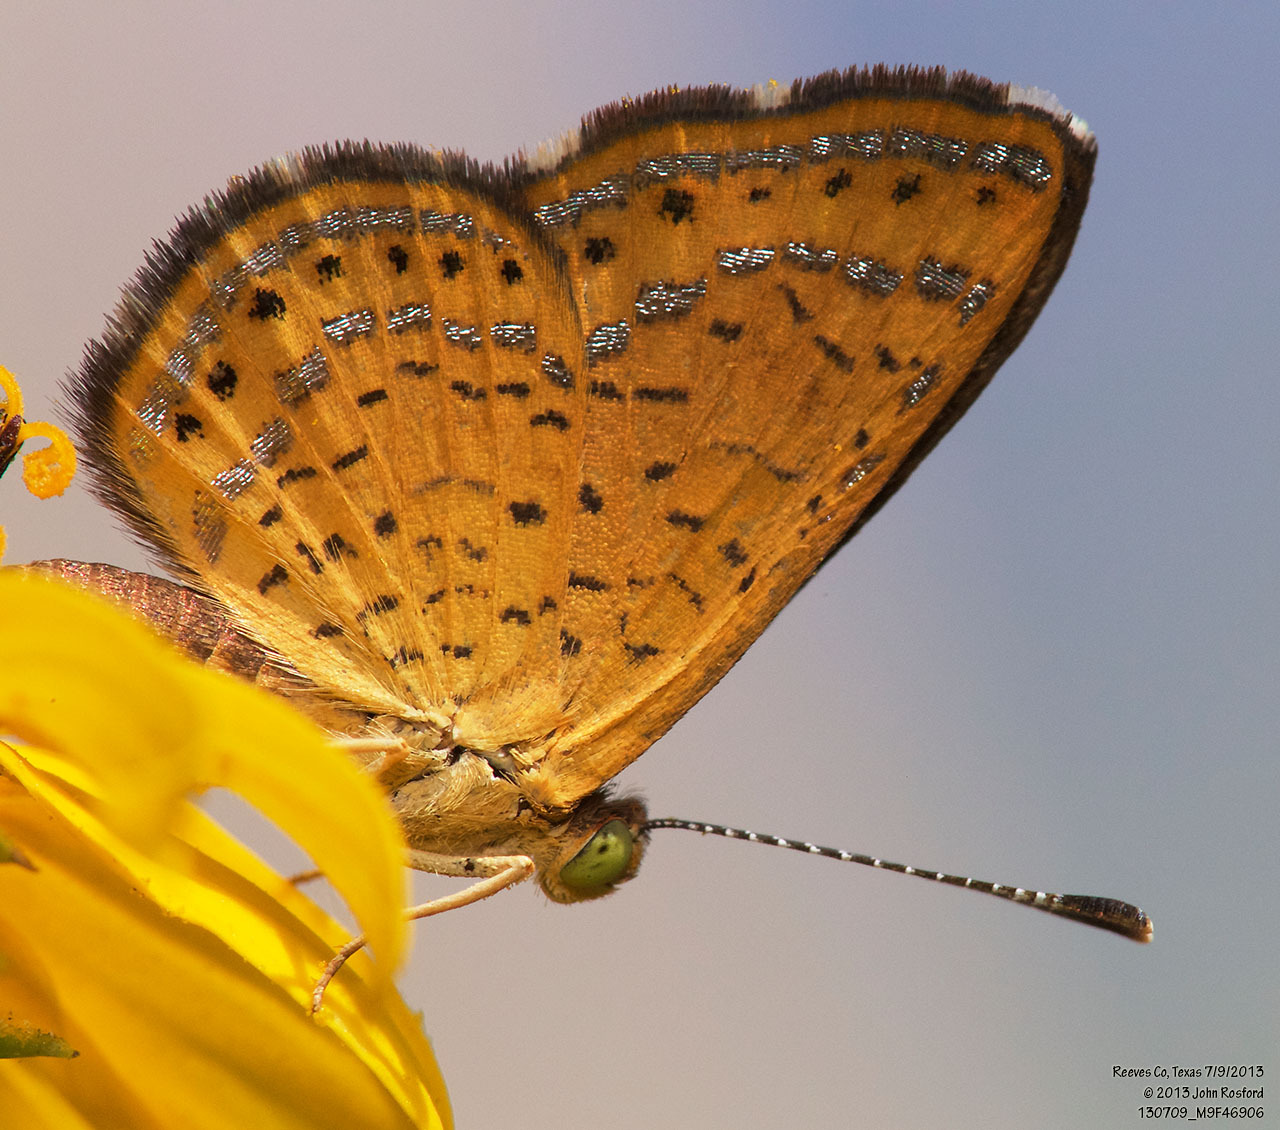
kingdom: Animalia
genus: Calephelis
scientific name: Calephelis nemesis
